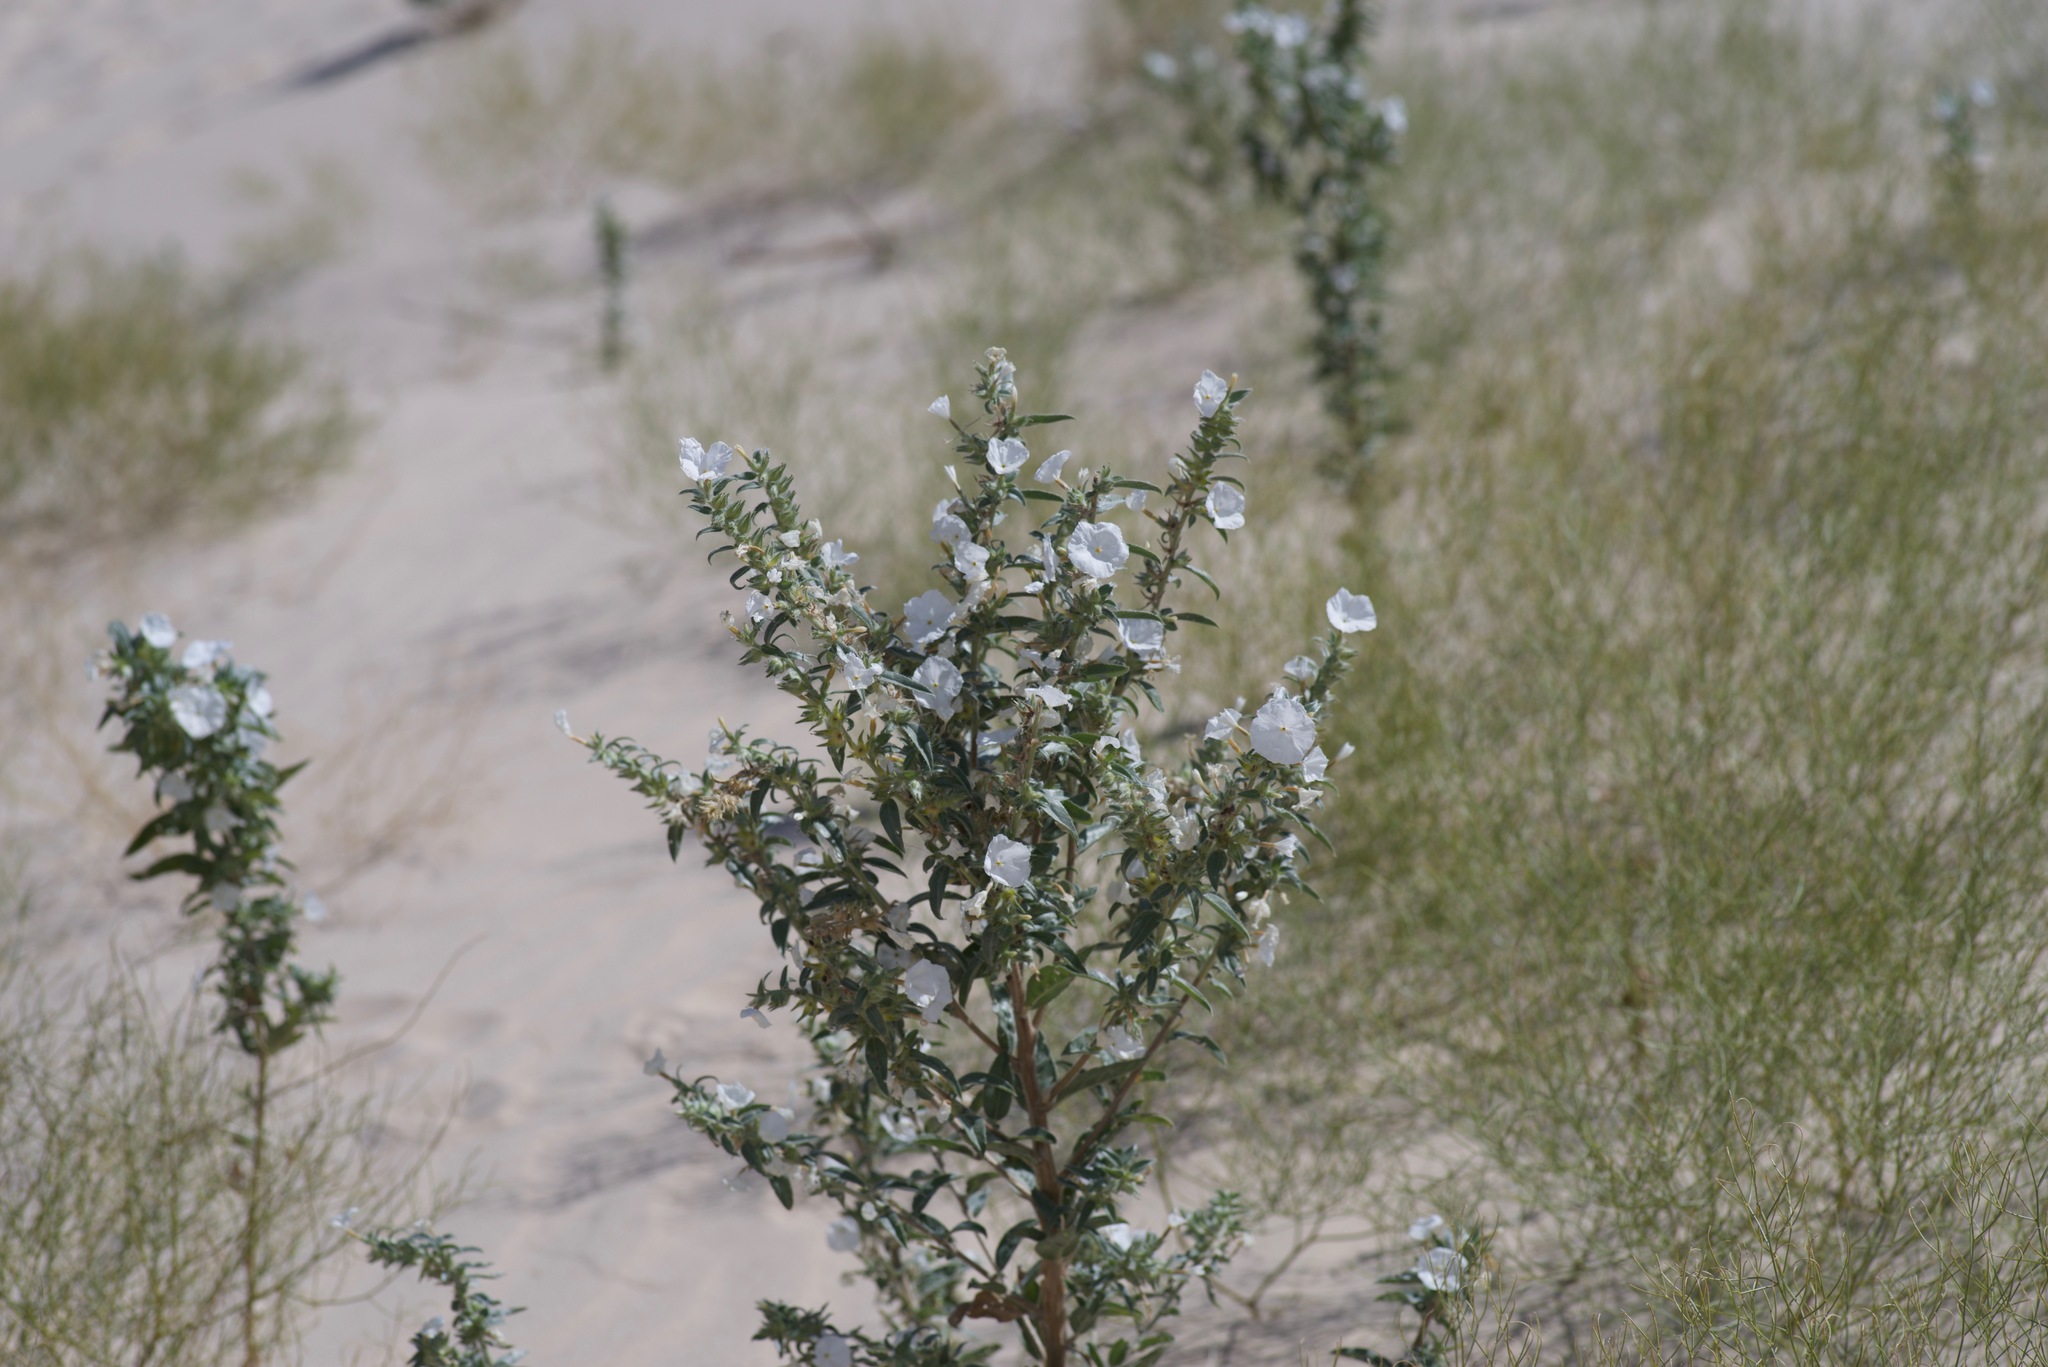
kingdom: Plantae
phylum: Tracheophyta
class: Magnoliopsida
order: Fabales
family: Fabaceae
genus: Ladeania
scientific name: Ladeania lanceolata
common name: Dune scurf-pea
